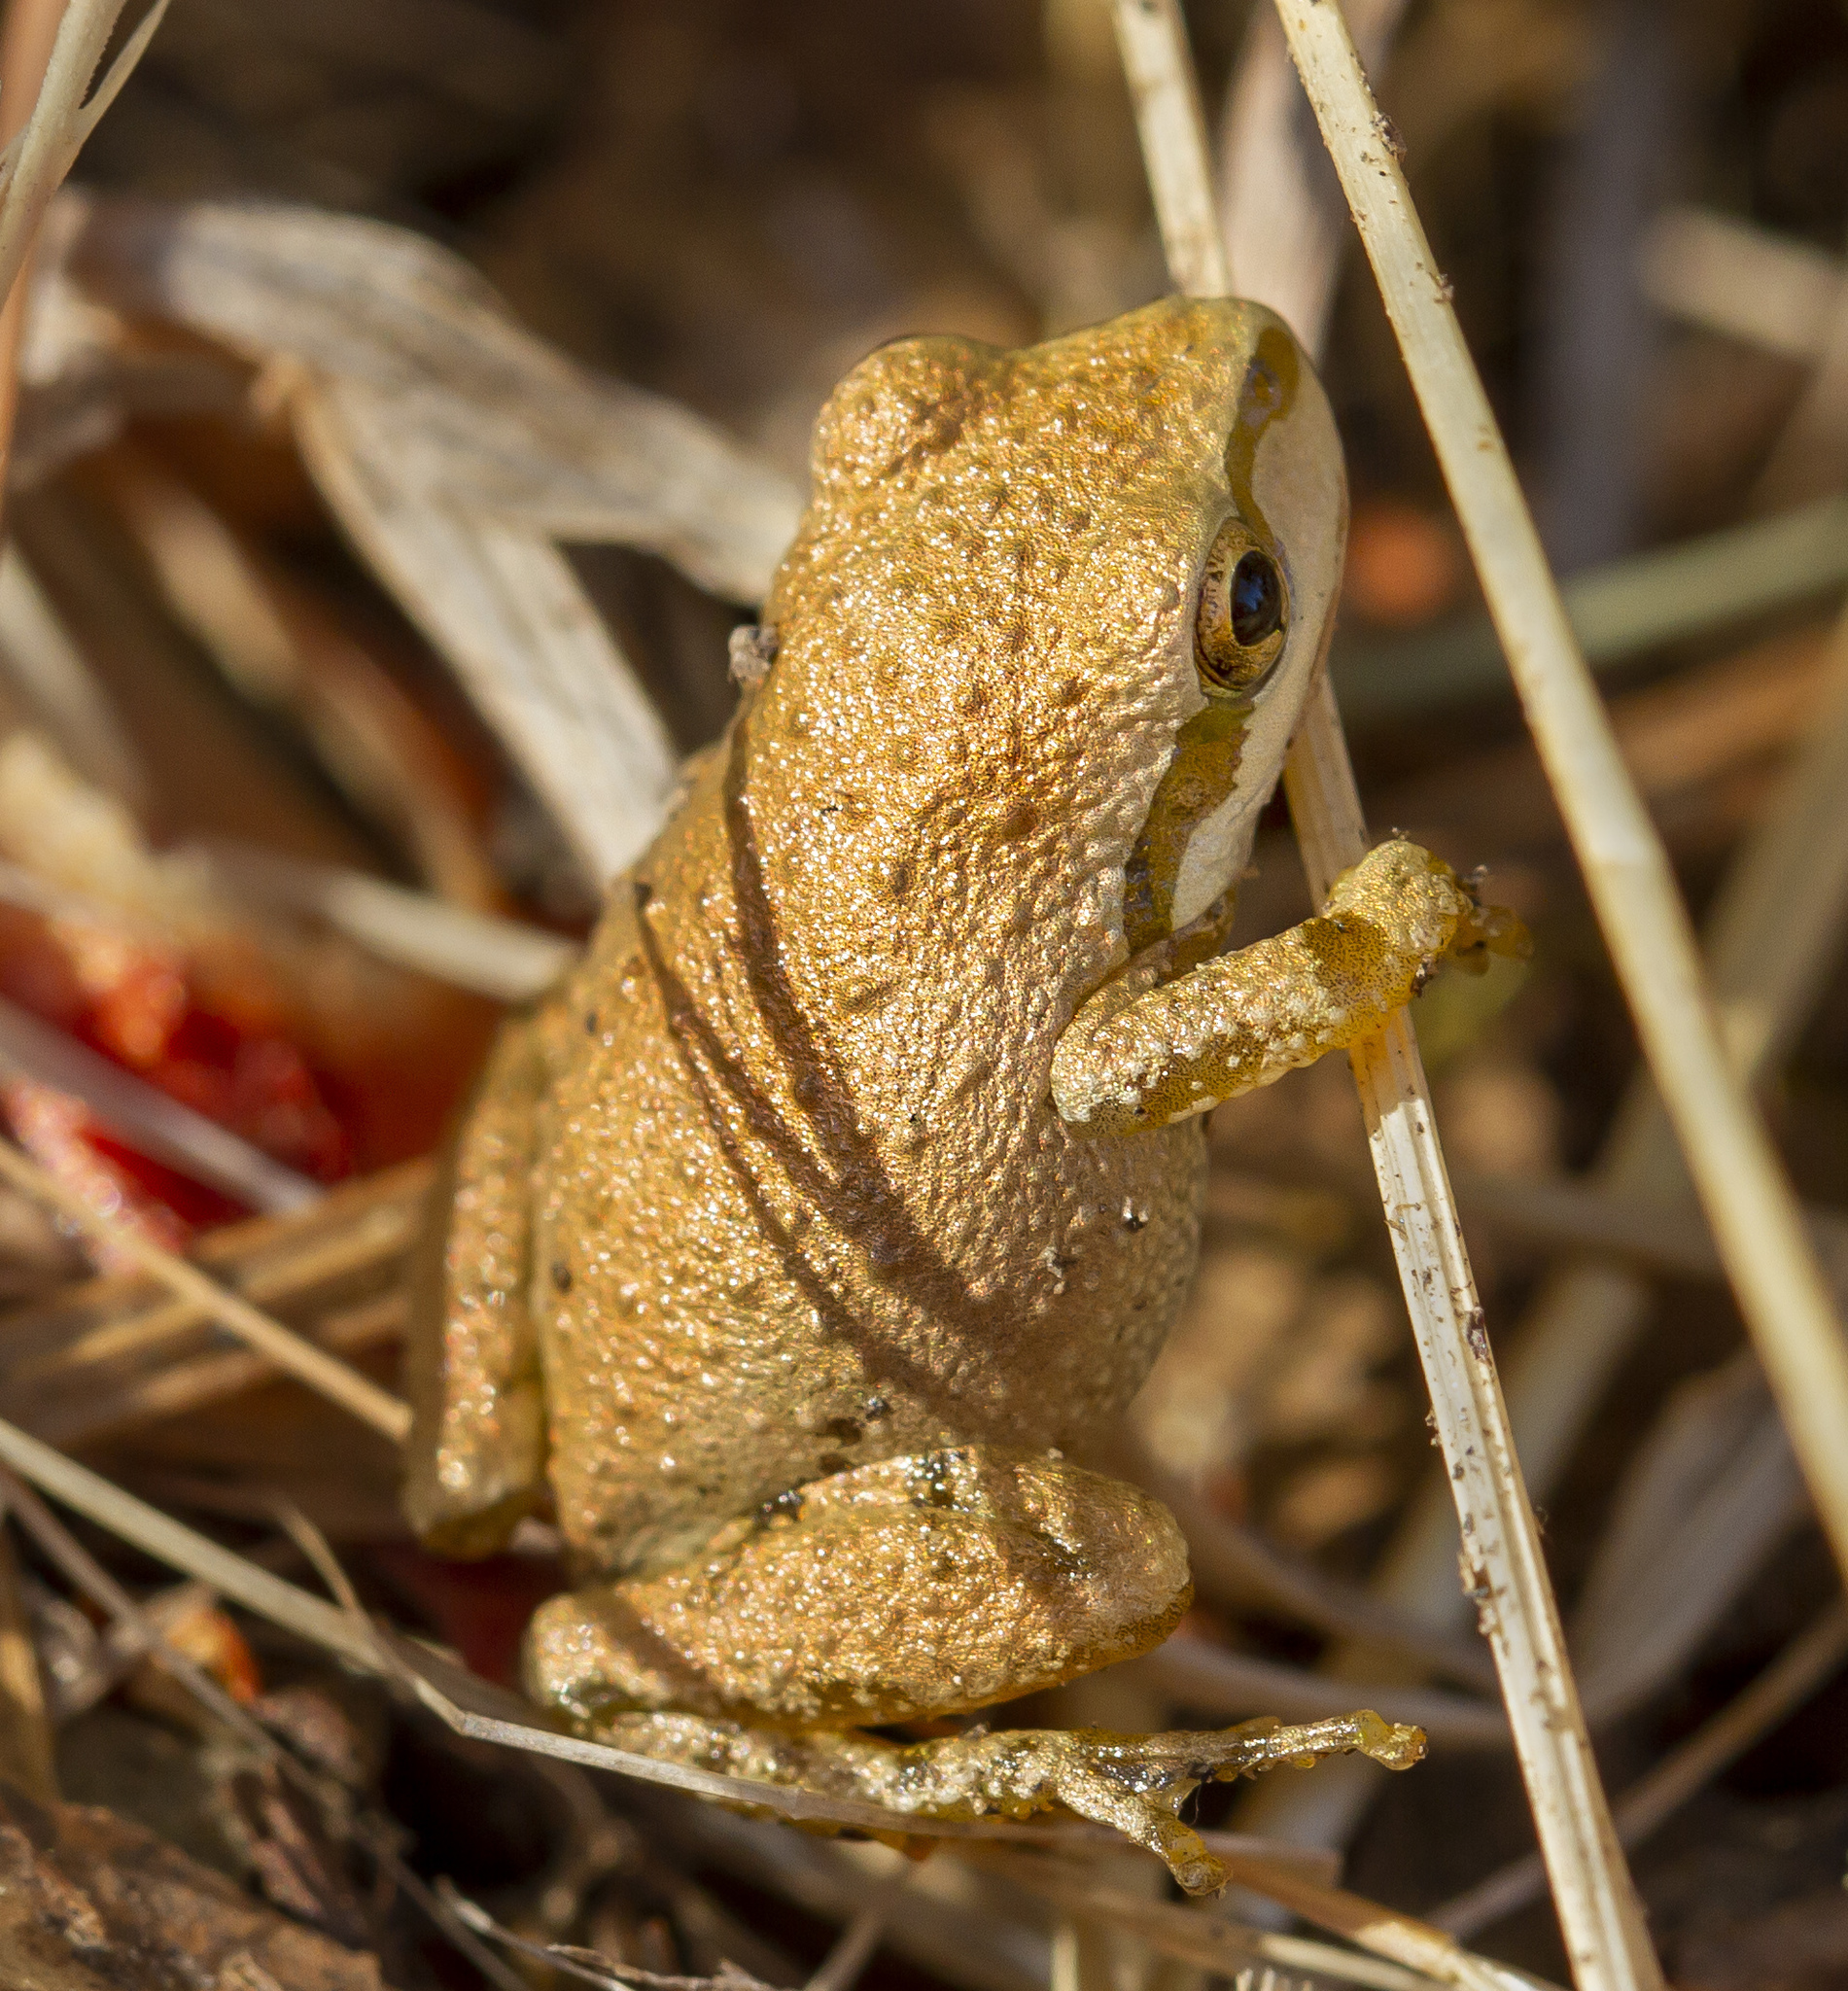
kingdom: Animalia
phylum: Chordata
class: Amphibia
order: Anura
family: Hylidae
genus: Pseudacris
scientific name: Pseudacris regilla
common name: Pacific chorus frog
